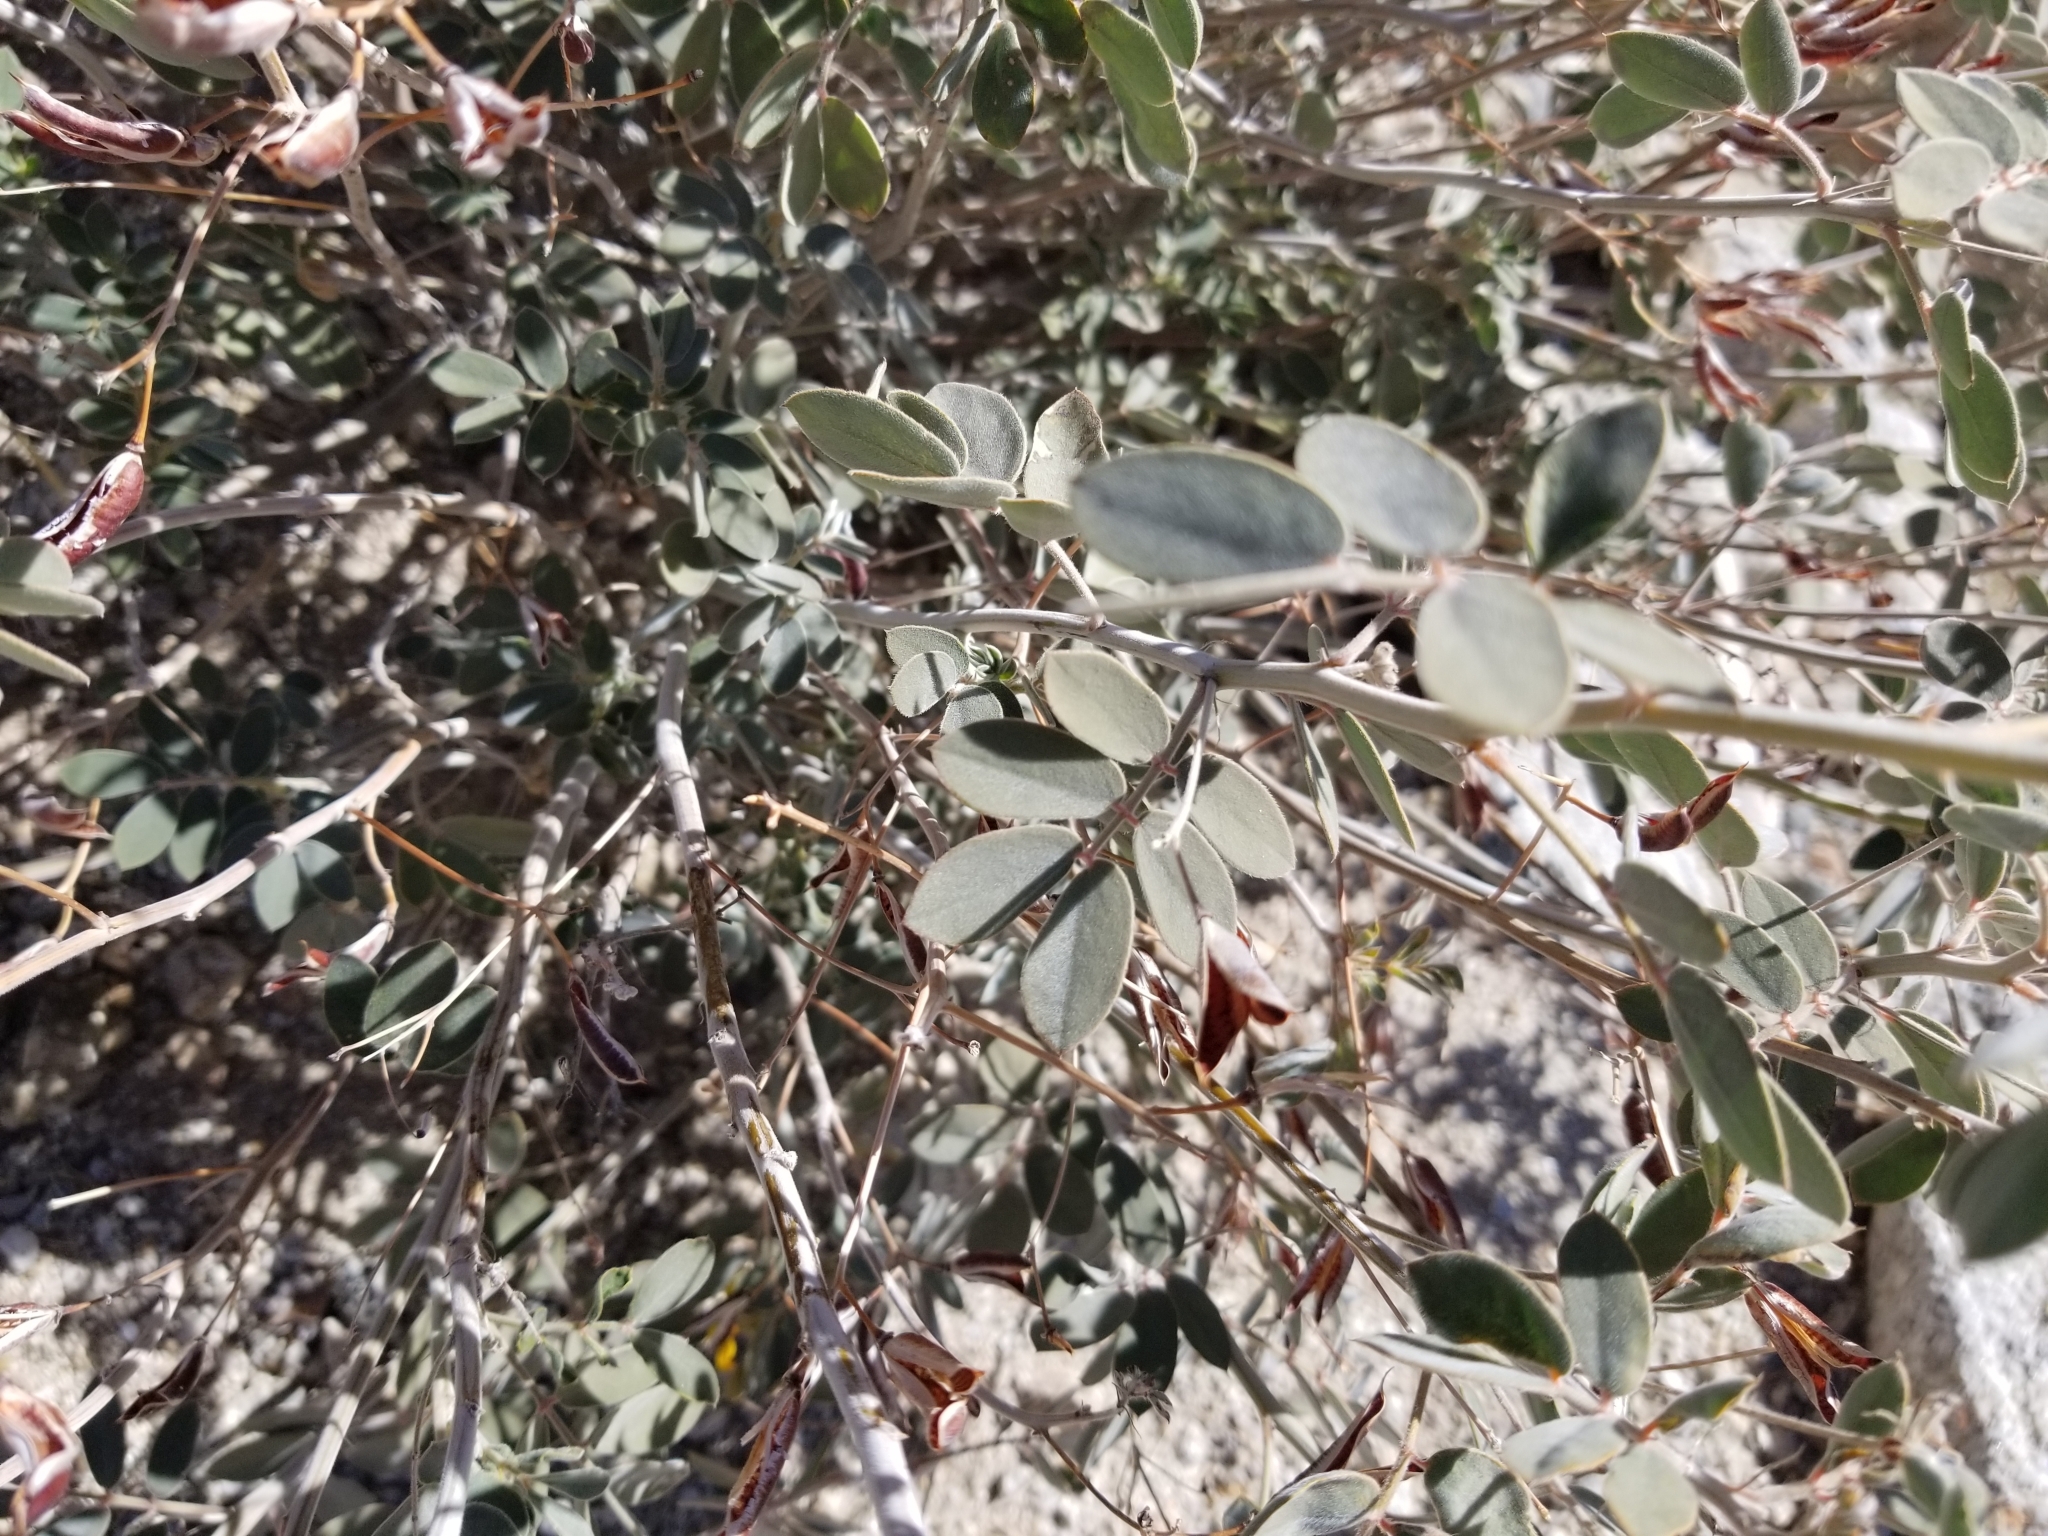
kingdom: Plantae
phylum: Tracheophyta
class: Magnoliopsida
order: Fabales
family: Fabaceae
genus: Senna
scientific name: Senna covesii
